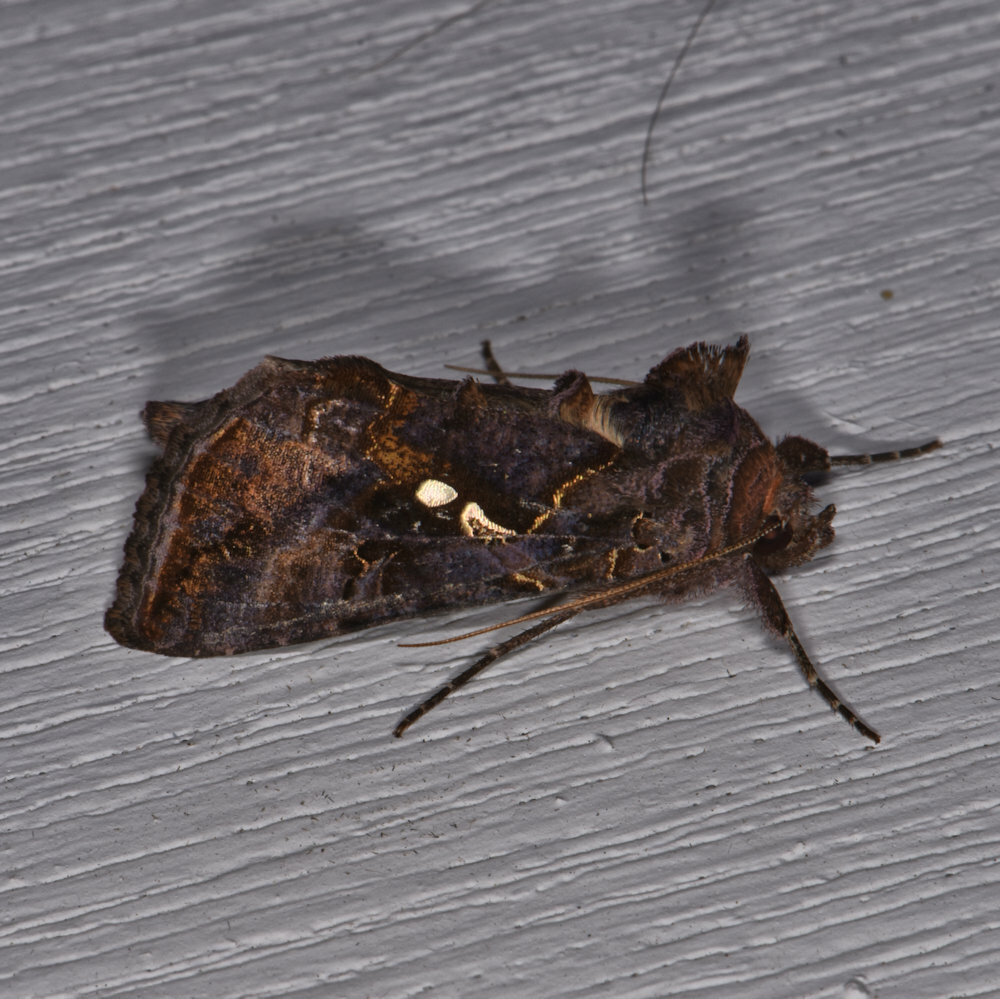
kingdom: Animalia
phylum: Arthropoda
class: Insecta
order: Lepidoptera
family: Noctuidae
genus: Autographa
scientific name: Autographa precationis
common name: Common looper moth
